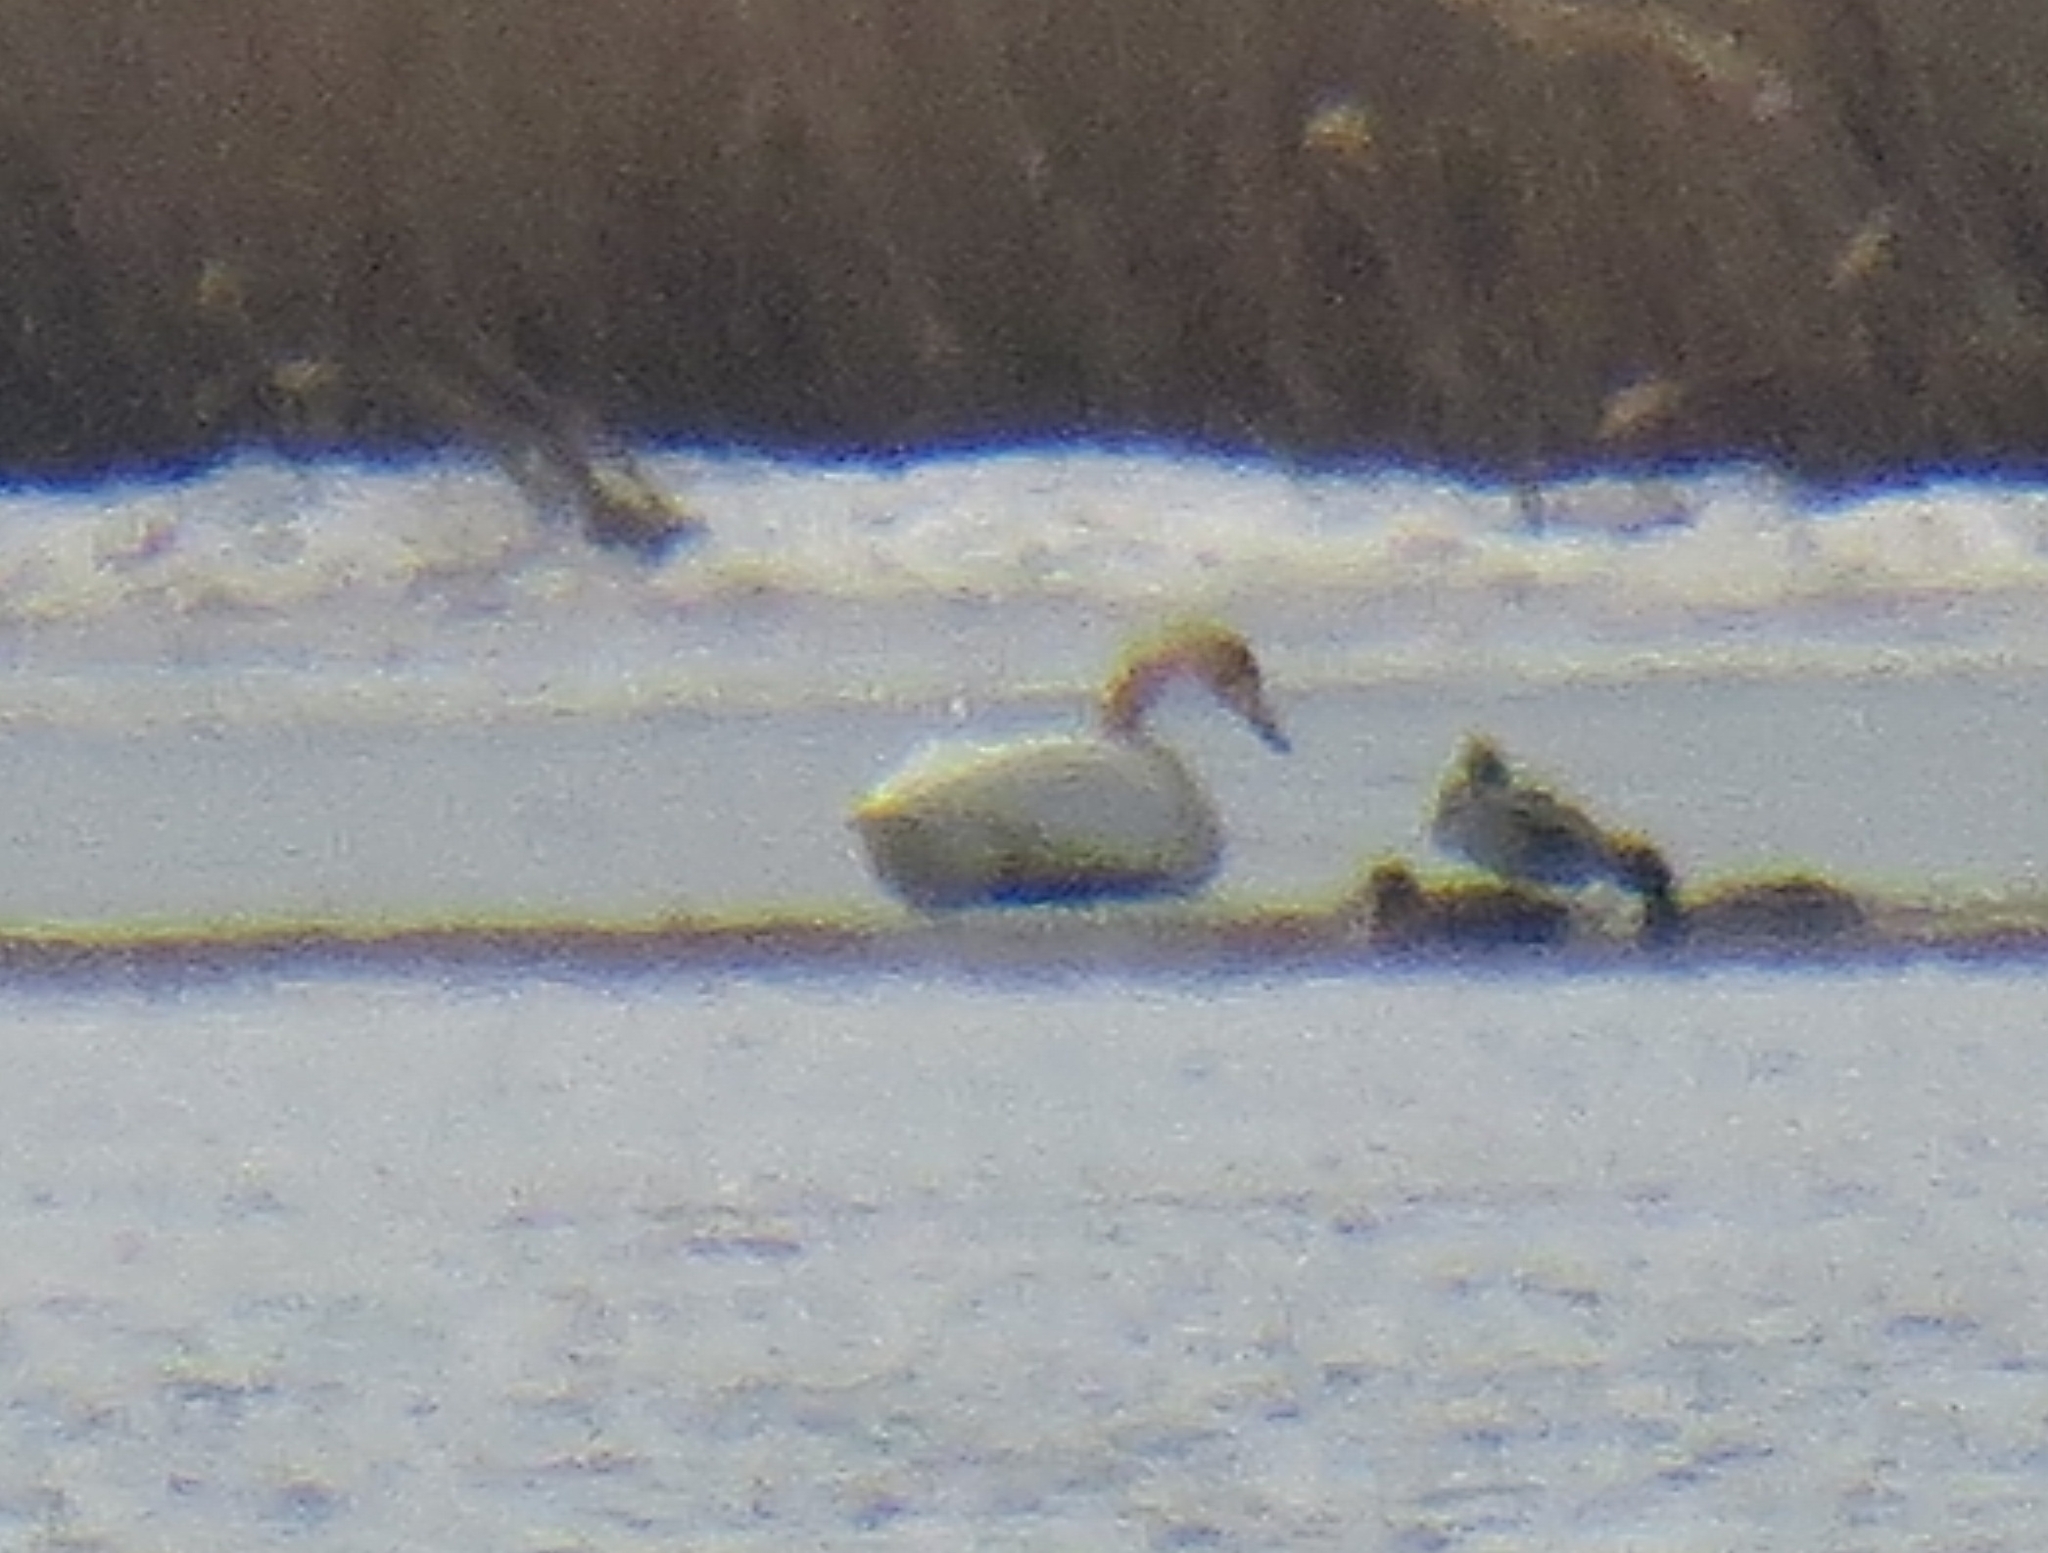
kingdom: Animalia
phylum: Chordata
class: Aves
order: Anseriformes
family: Anatidae
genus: Cygnus
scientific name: Cygnus cygnus
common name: Whooper swan
